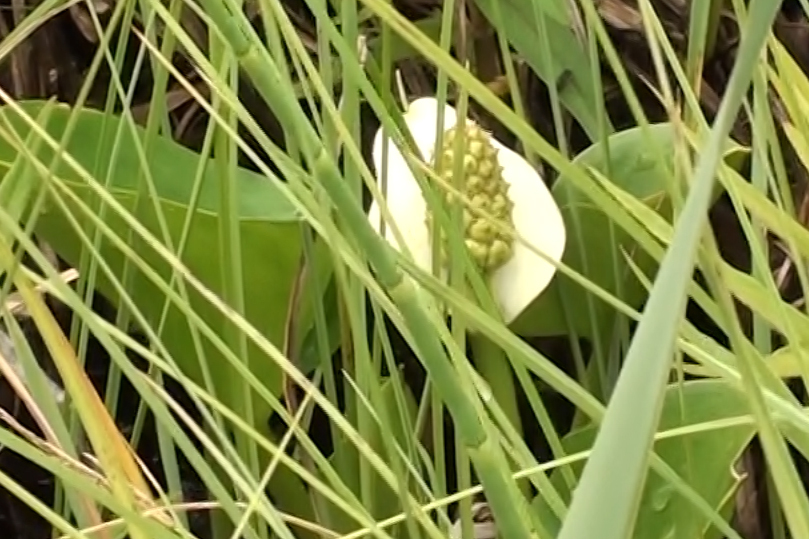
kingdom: Plantae
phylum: Tracheophyta
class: Liliopsida
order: Alismatales
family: Araceae
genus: Calla
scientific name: Calla palustris
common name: Bog arum
